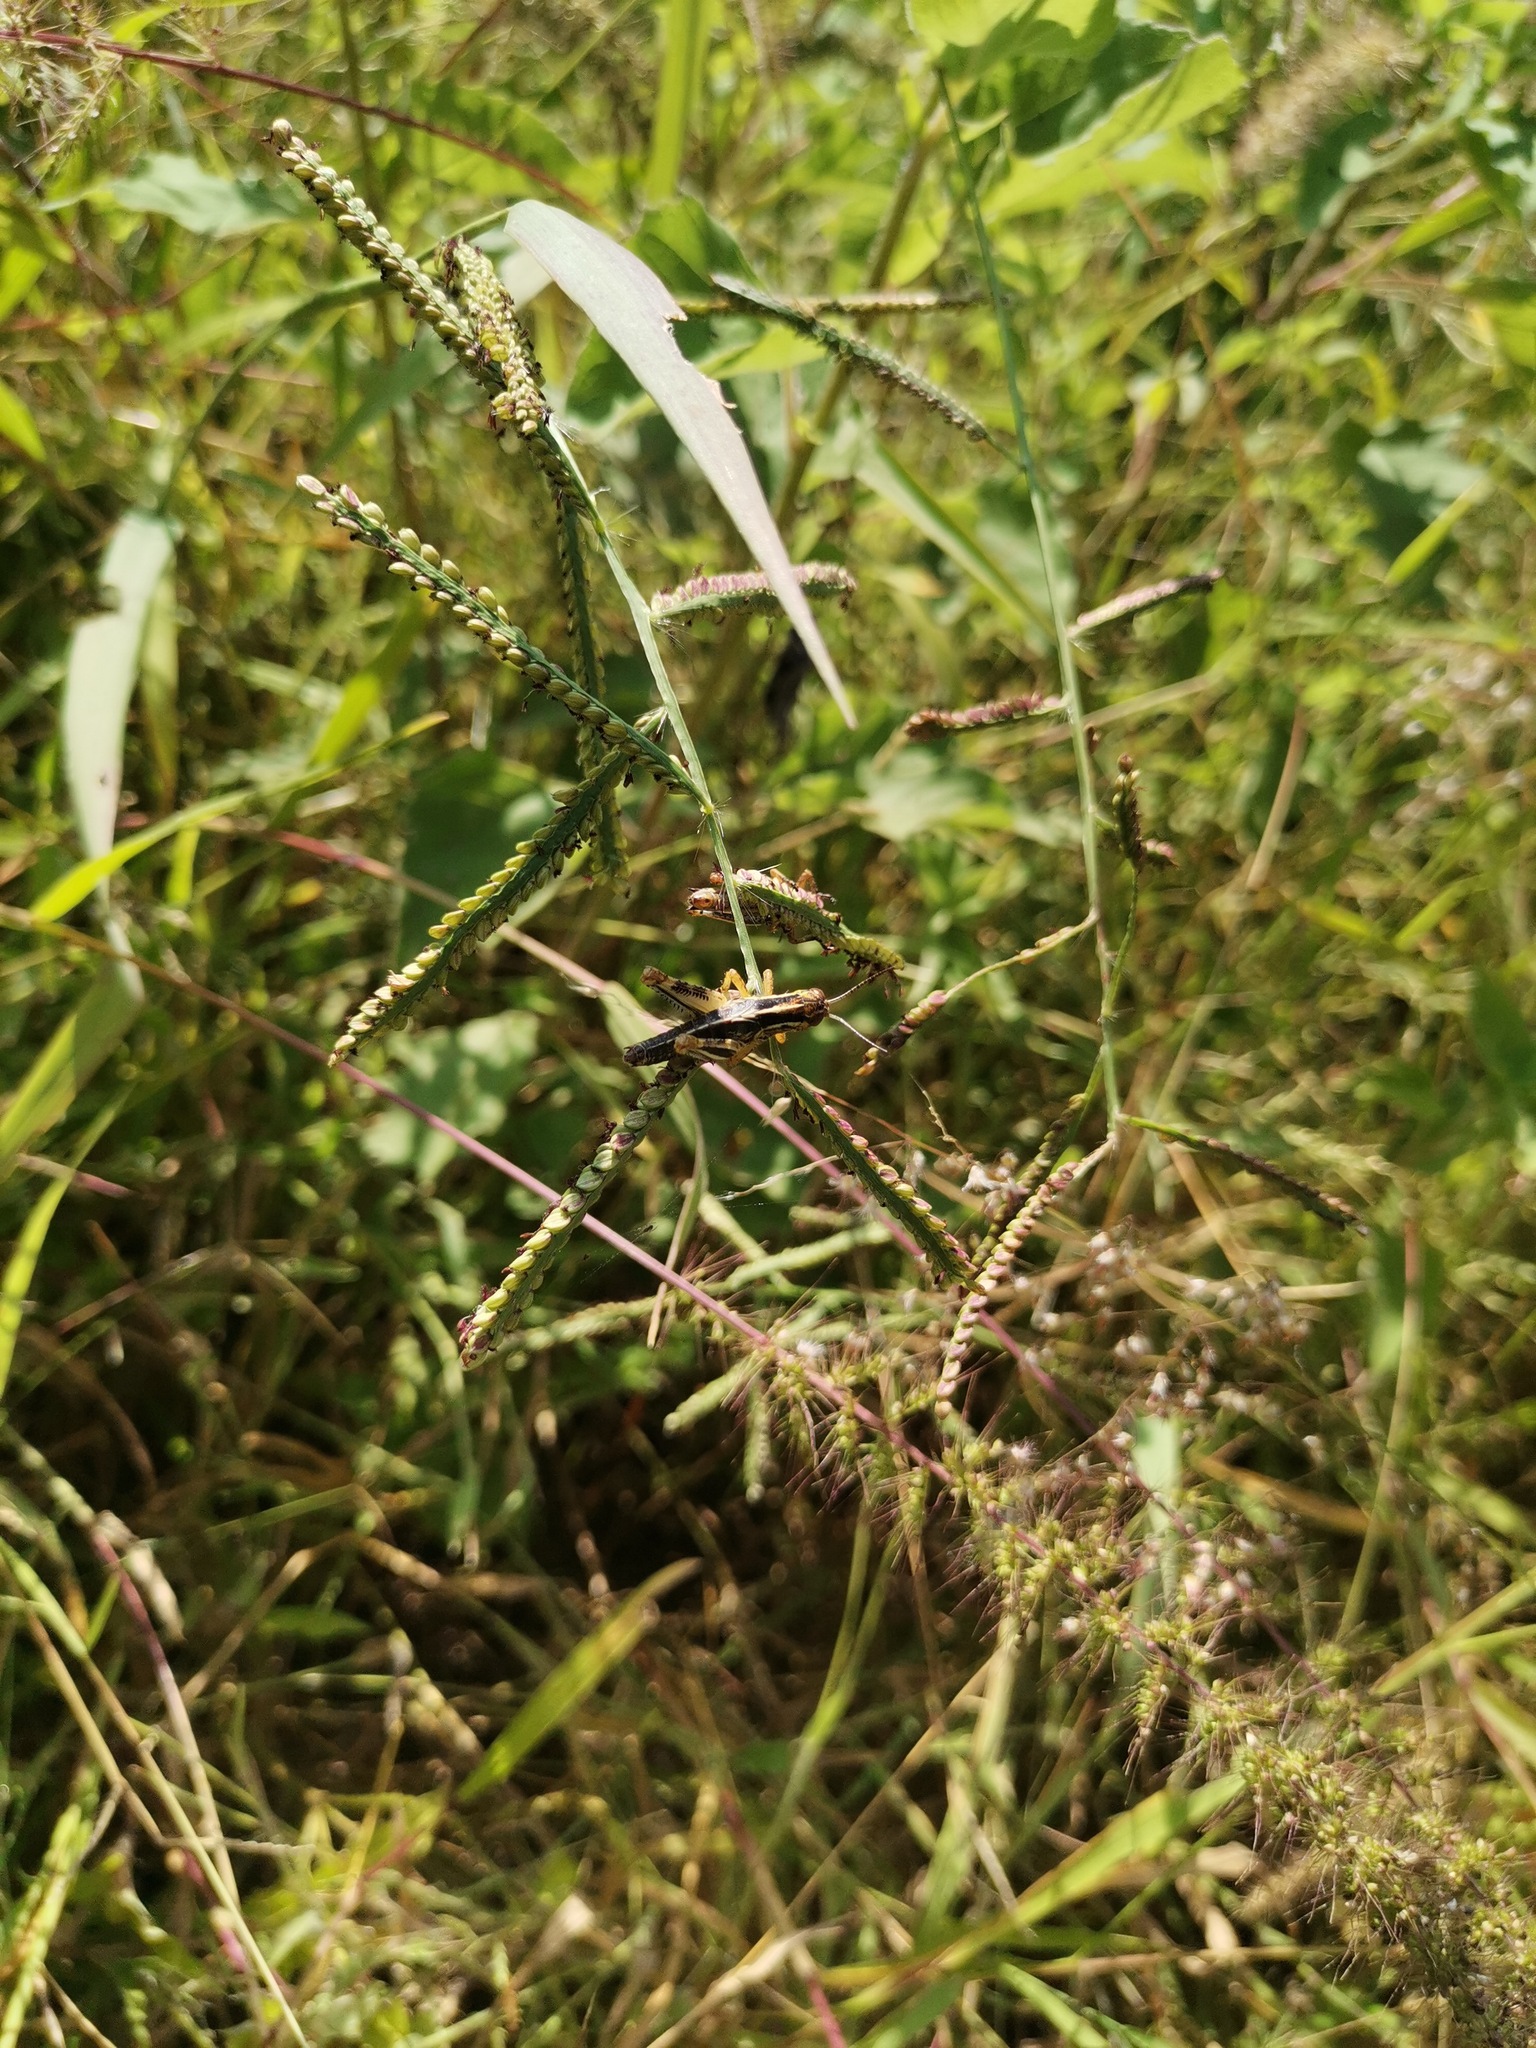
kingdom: Plantae
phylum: Tracheophyta
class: Liliopsida
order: Poales
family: Poaceae
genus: Paspalum
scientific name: Paspalum plicatulum
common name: Top paspalum
